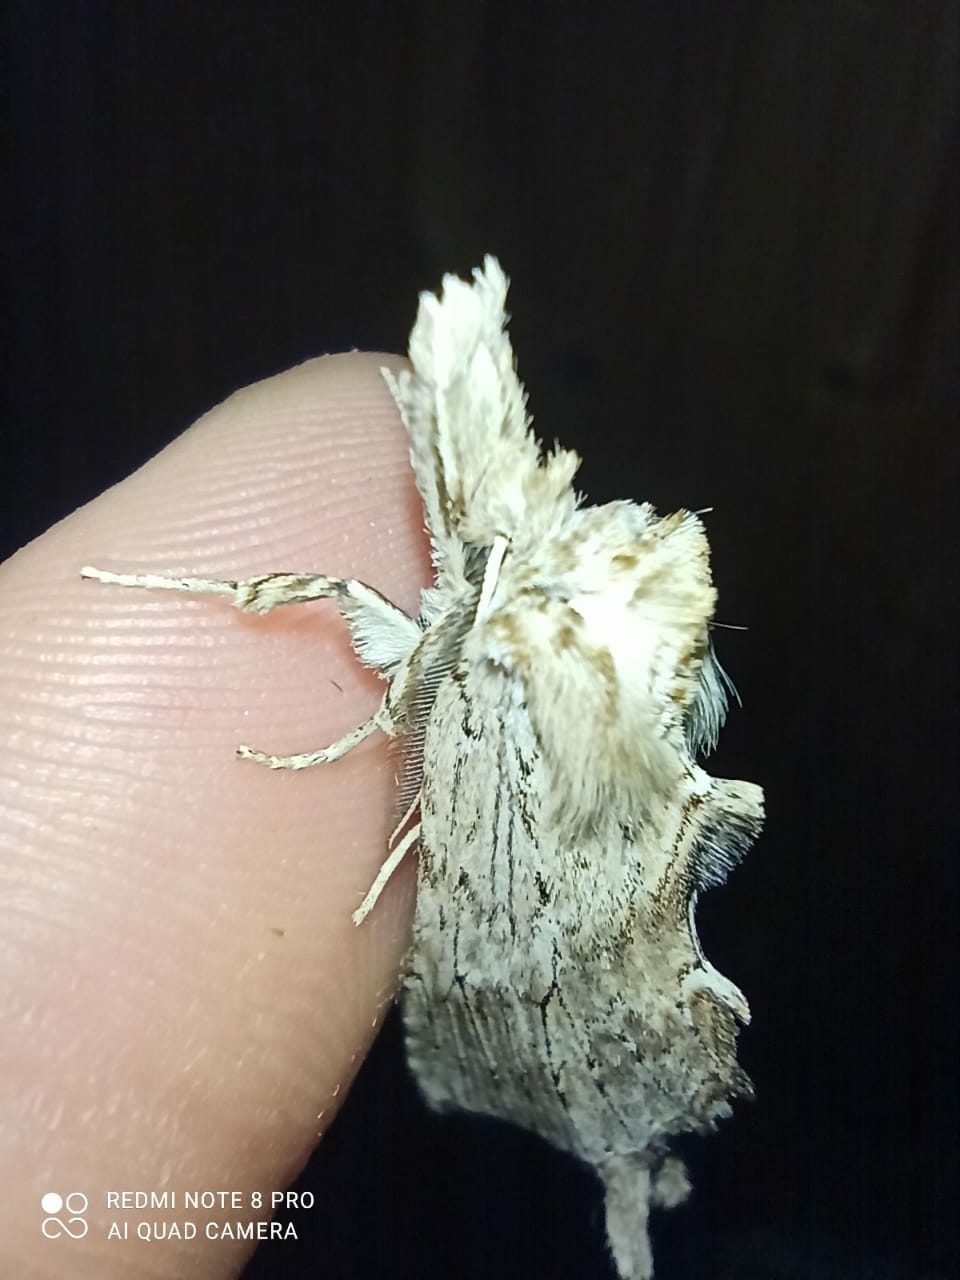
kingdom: Animalia
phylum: Arthropoda
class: Insecta
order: Lepidoptera
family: Notodontidae
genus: Pterostoma
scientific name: Pterostoma palpina
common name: Pale prominent
